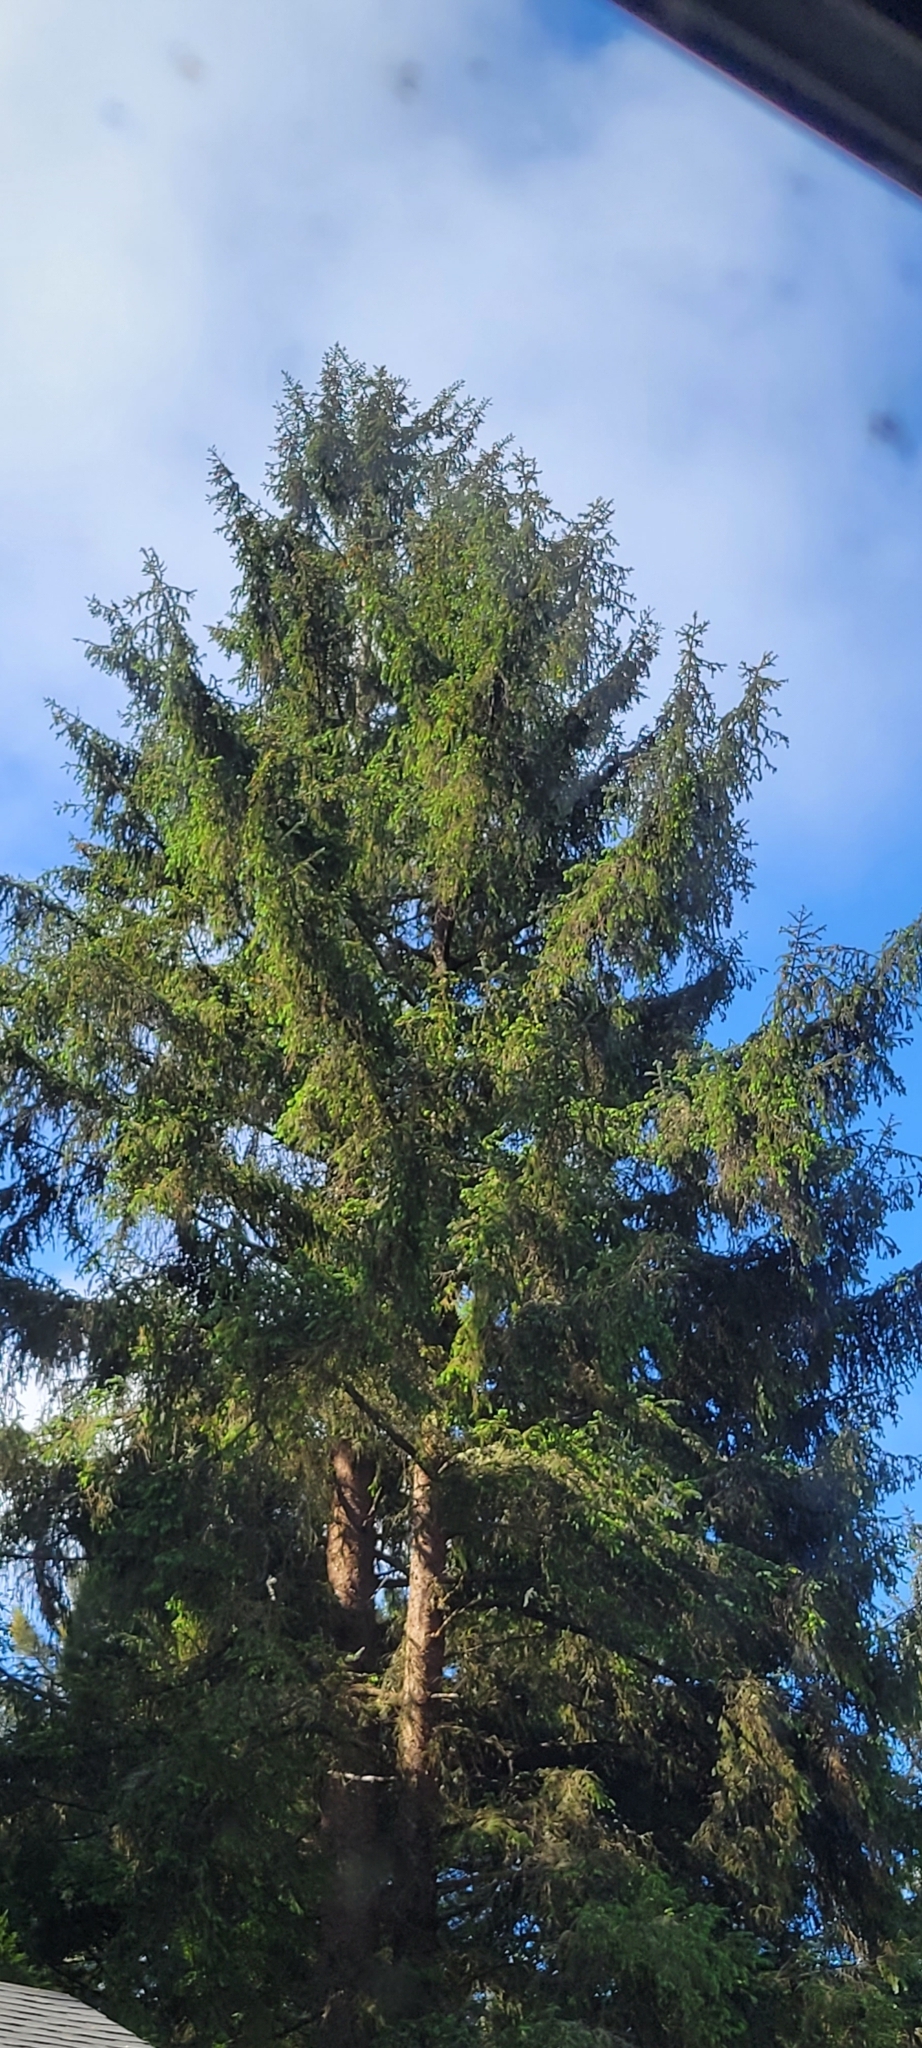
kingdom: Plantae
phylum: Tracheophyta
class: Pinopsida
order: Pinales
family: Pinaceae
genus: Picea
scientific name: Picea sitchensis
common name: Sitka spruce
